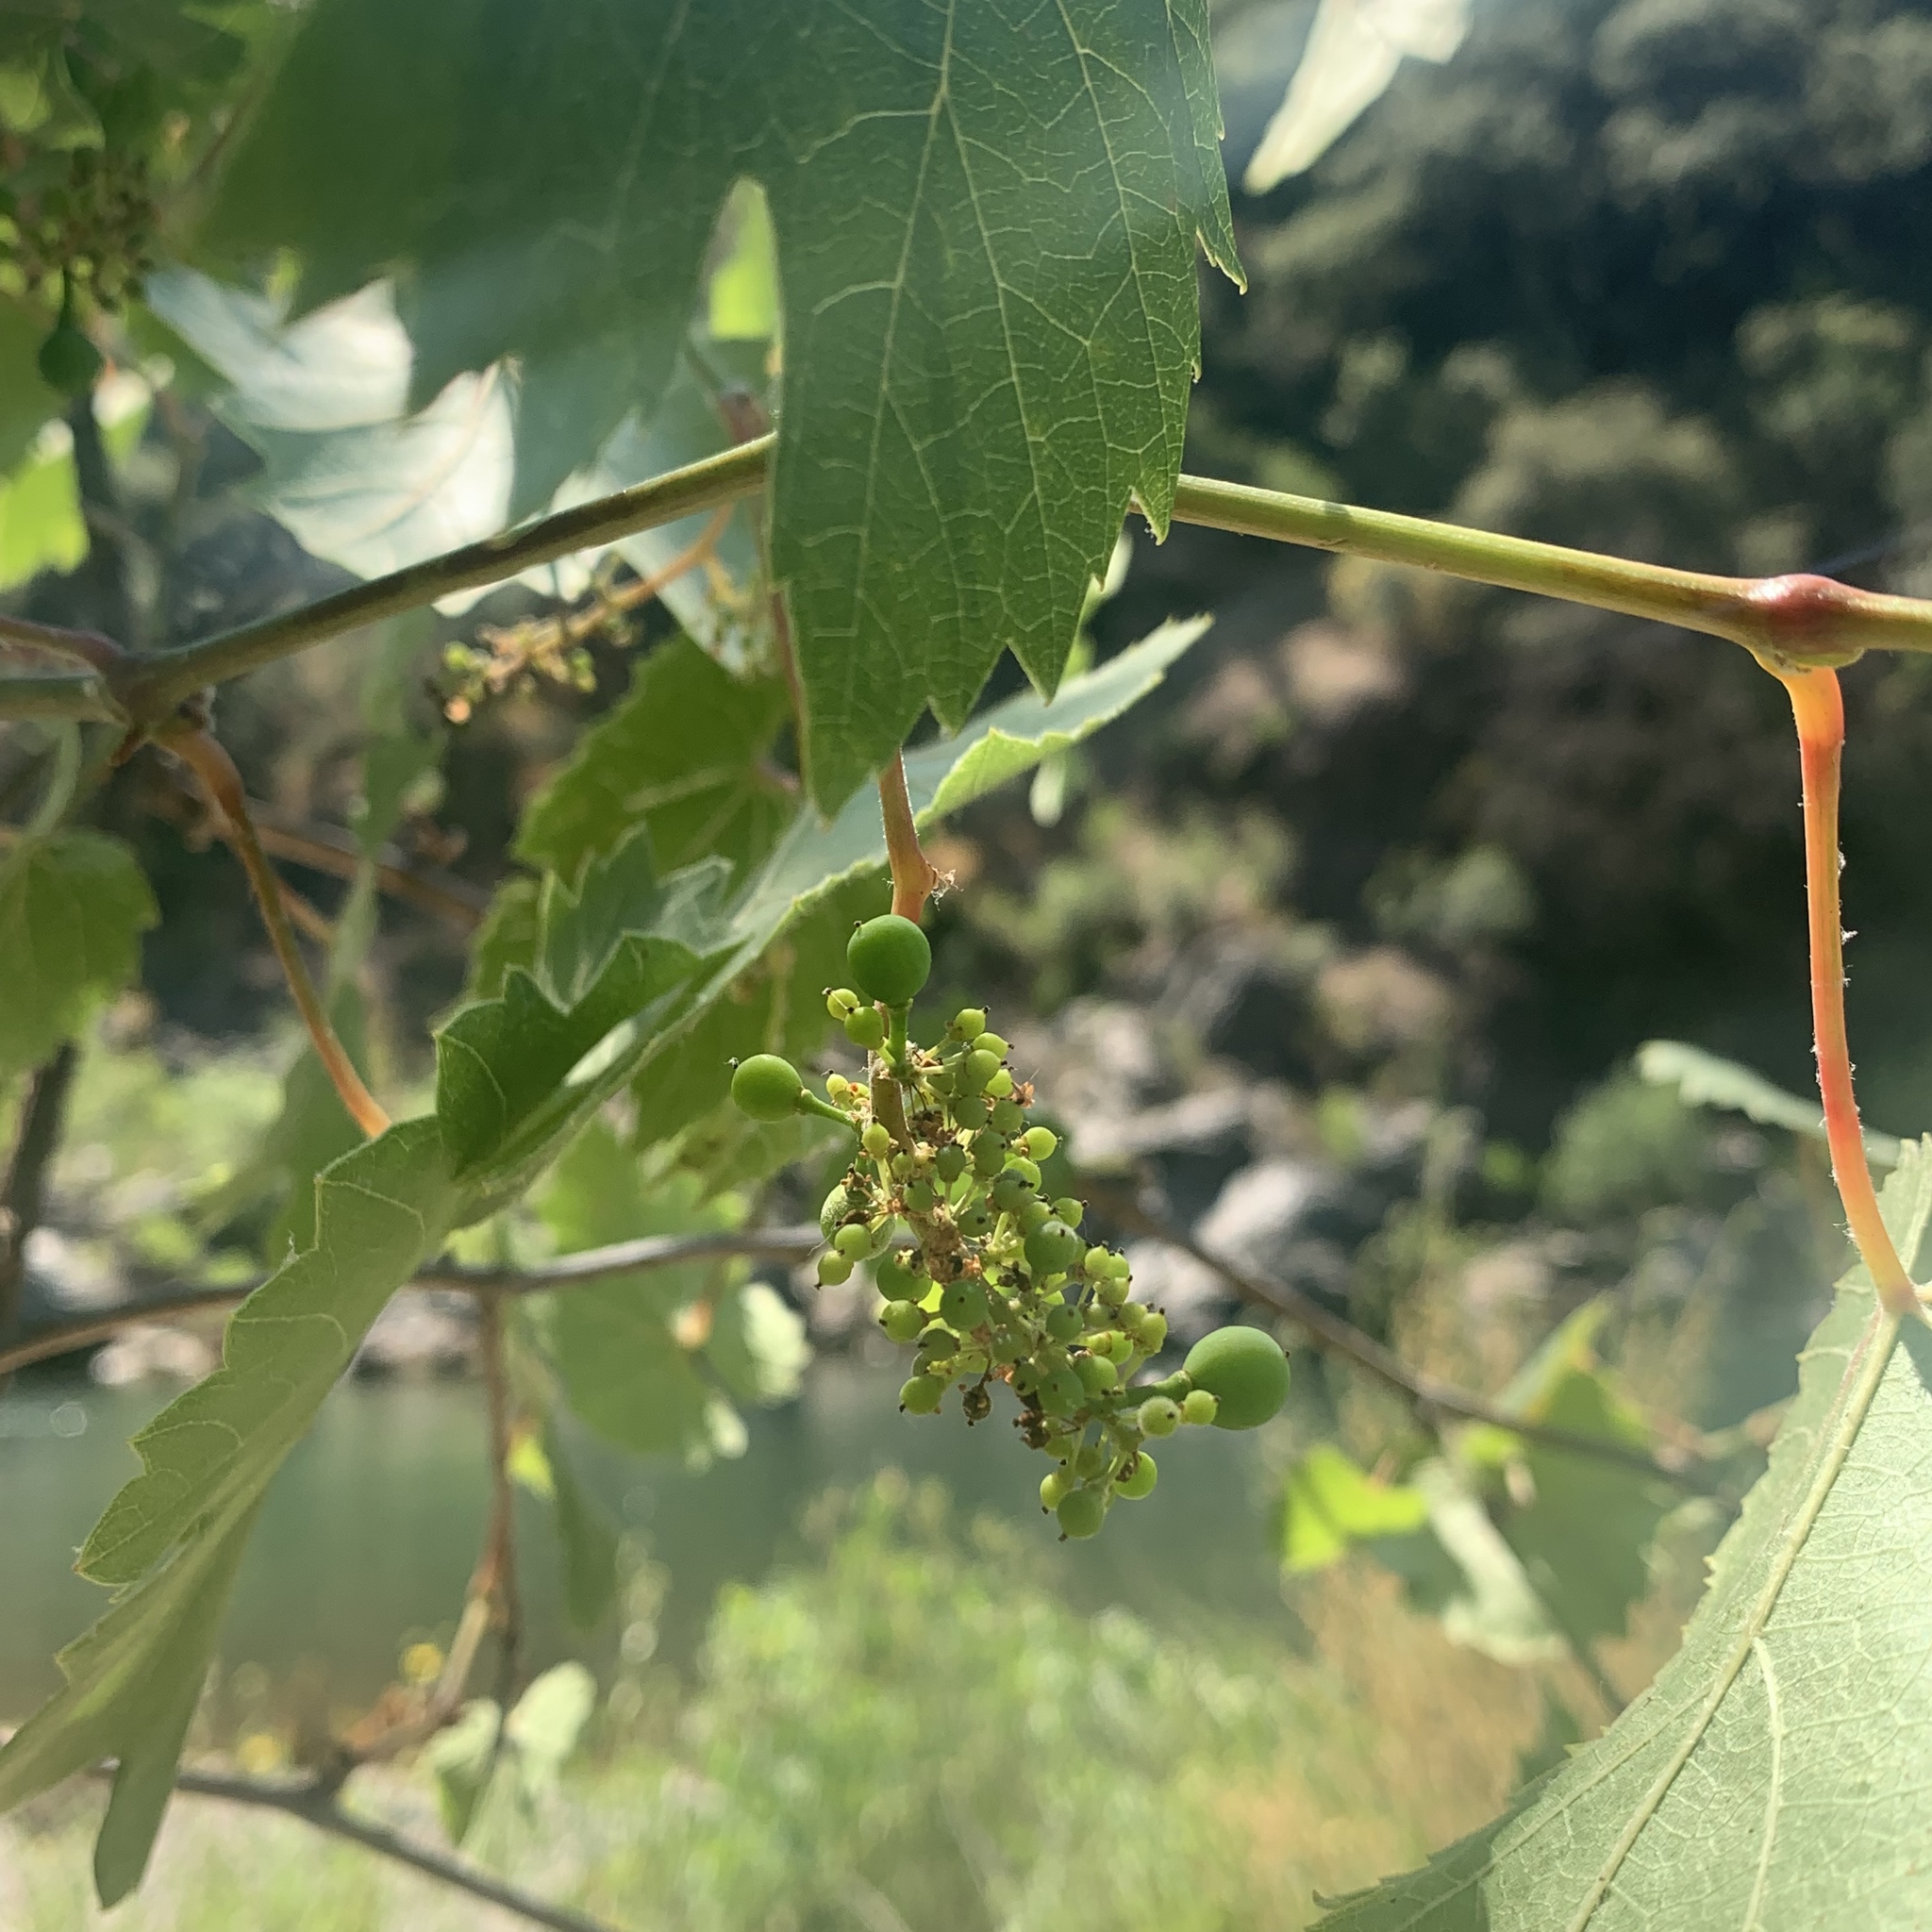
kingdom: Plantae
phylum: Tracheophyta
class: Magnoliopsida
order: Vitales
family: Vitaceae
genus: Vitis
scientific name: Vitis californica
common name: California wild grape
